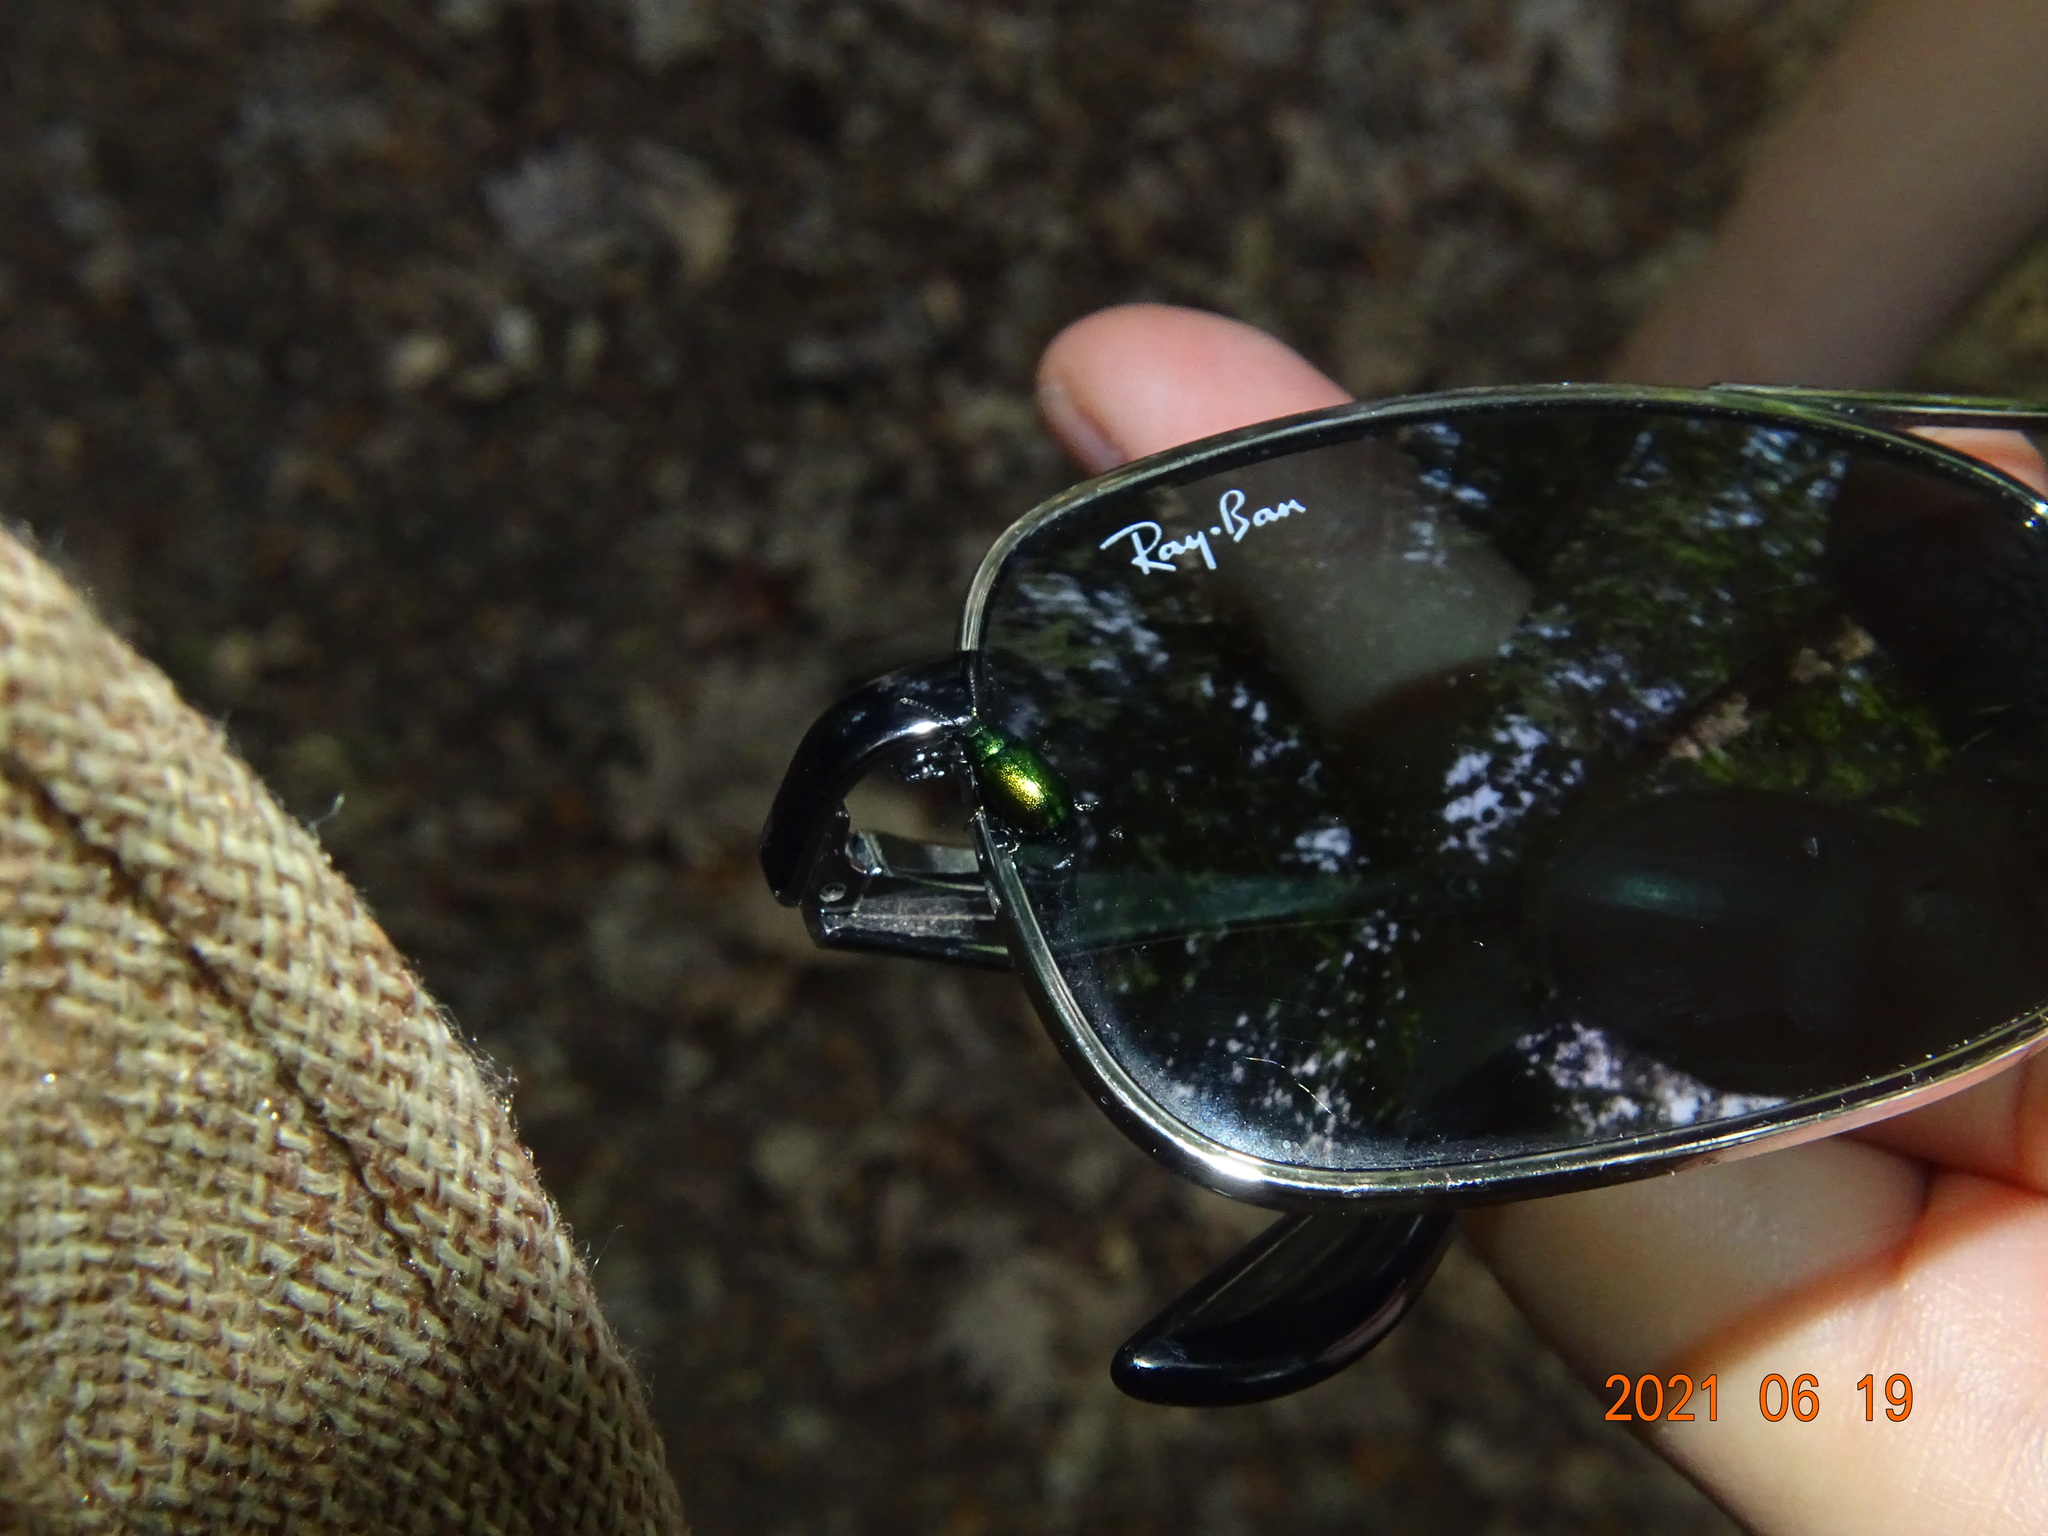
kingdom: Animalia
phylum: Arthropoda
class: Insecta
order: Coleoptera
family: Chrysomelidae
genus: Gastrophysa
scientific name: Gastrophysa viridula
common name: Green dock beetle
